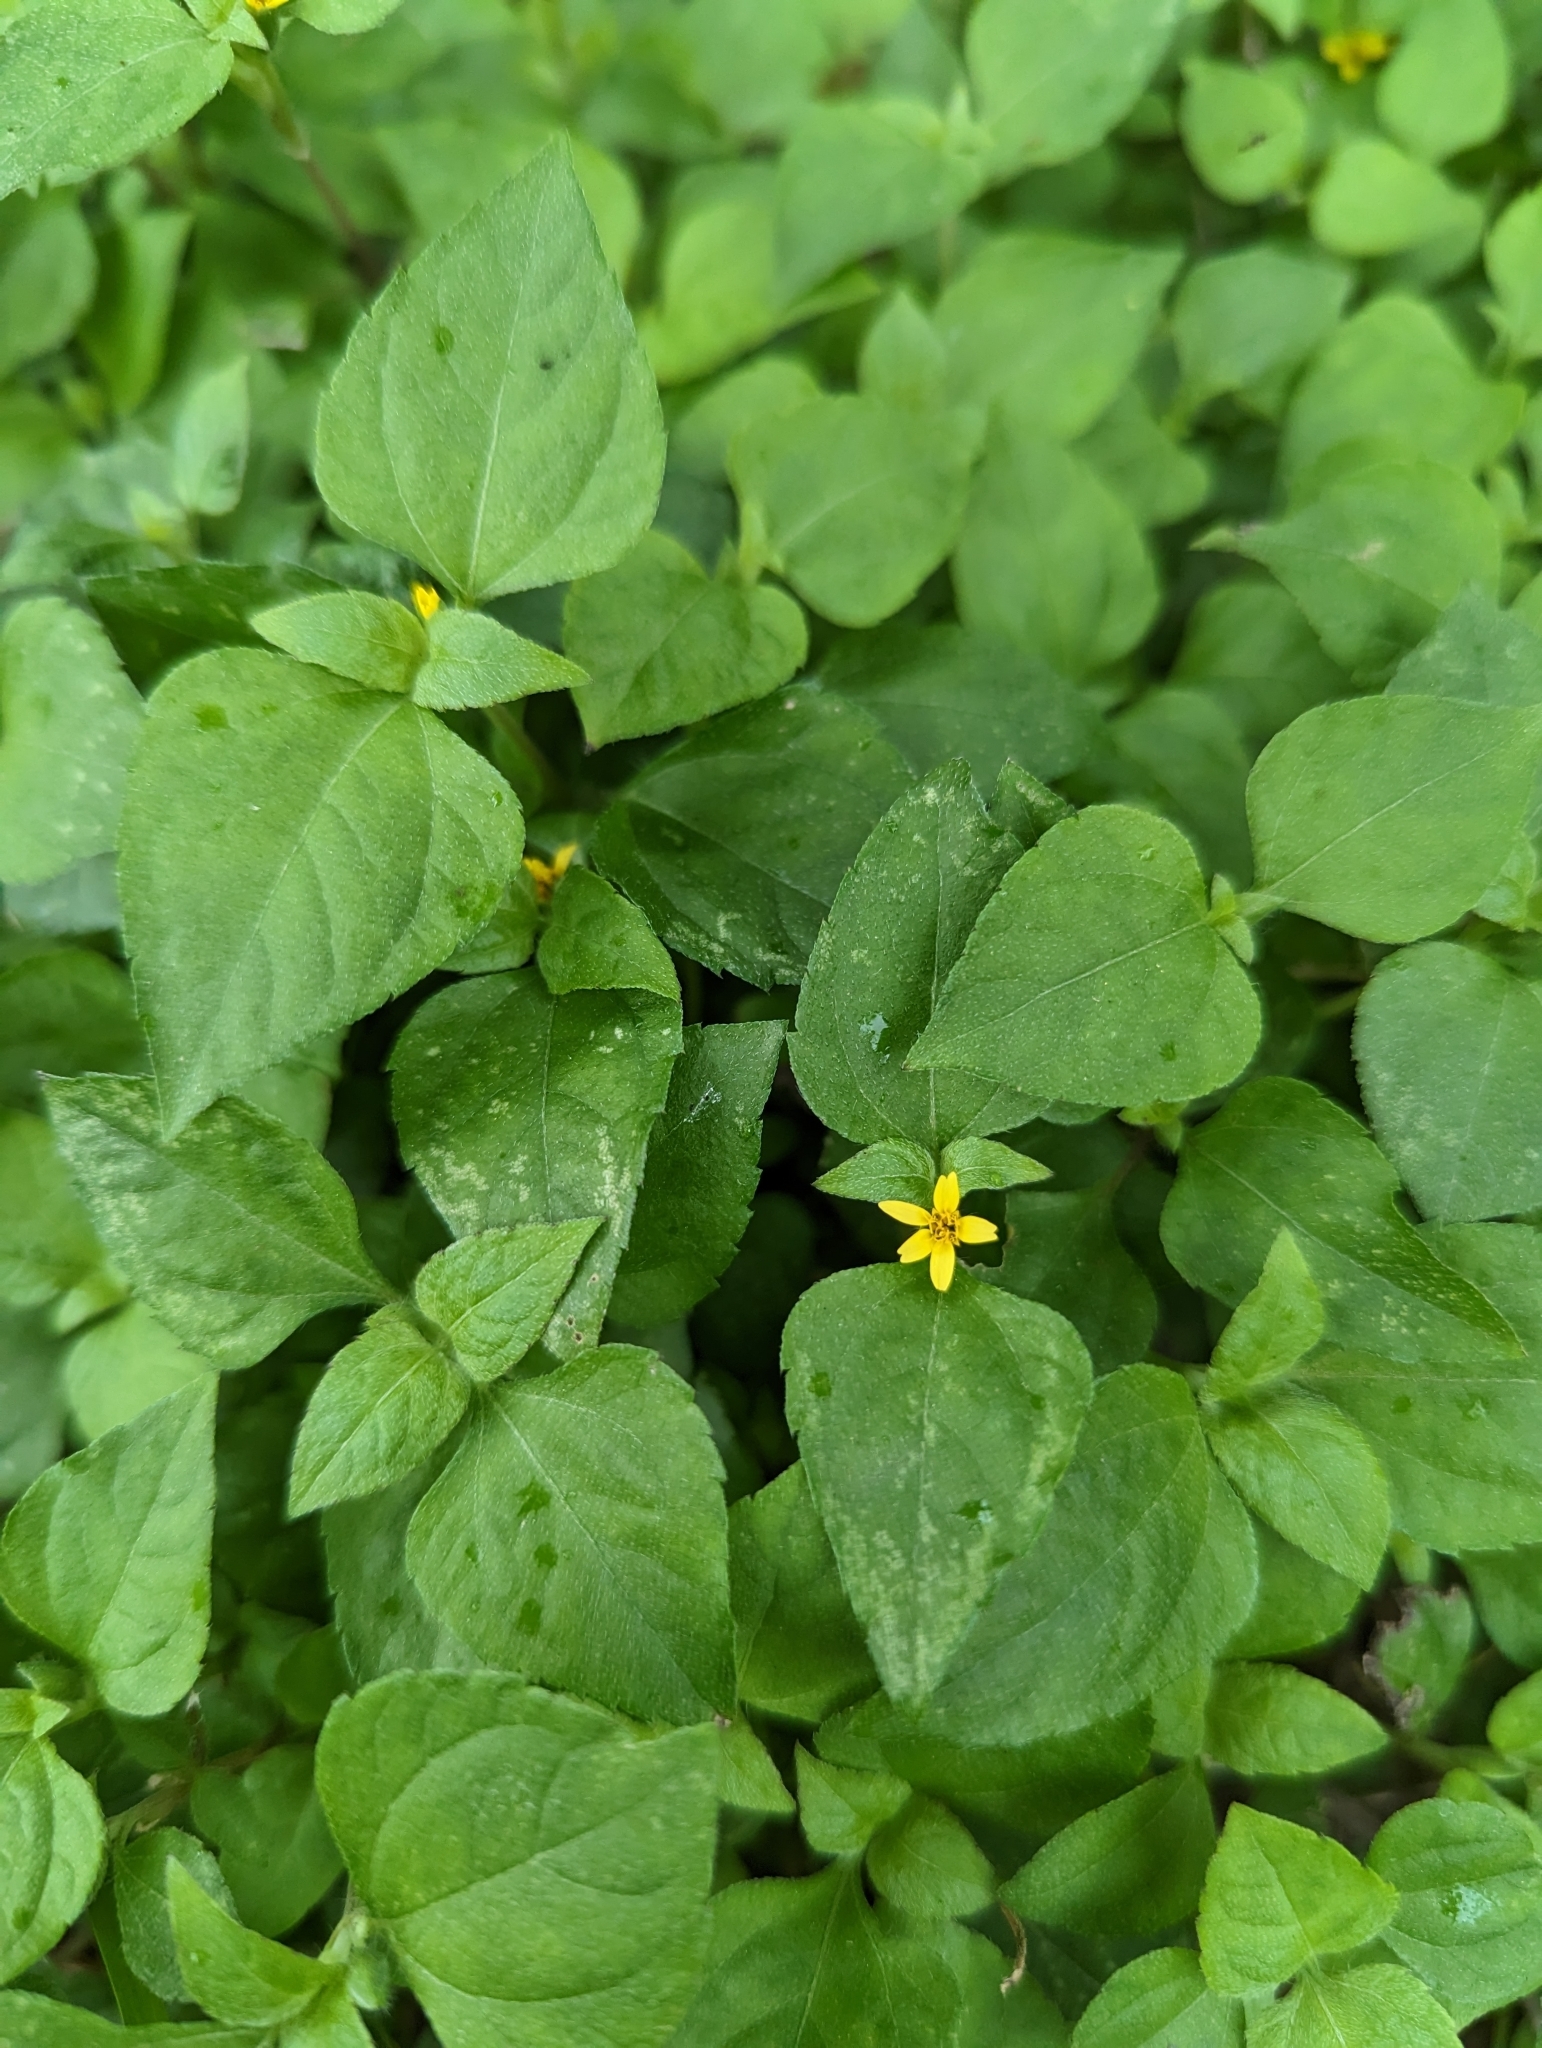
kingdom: Plantae
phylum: Tracheophyta
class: Magnoliopsida
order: Asterales
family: Asteraceae
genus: Calyptocarpus
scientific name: Calyptocarpus vialis
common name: Straggler daisy
